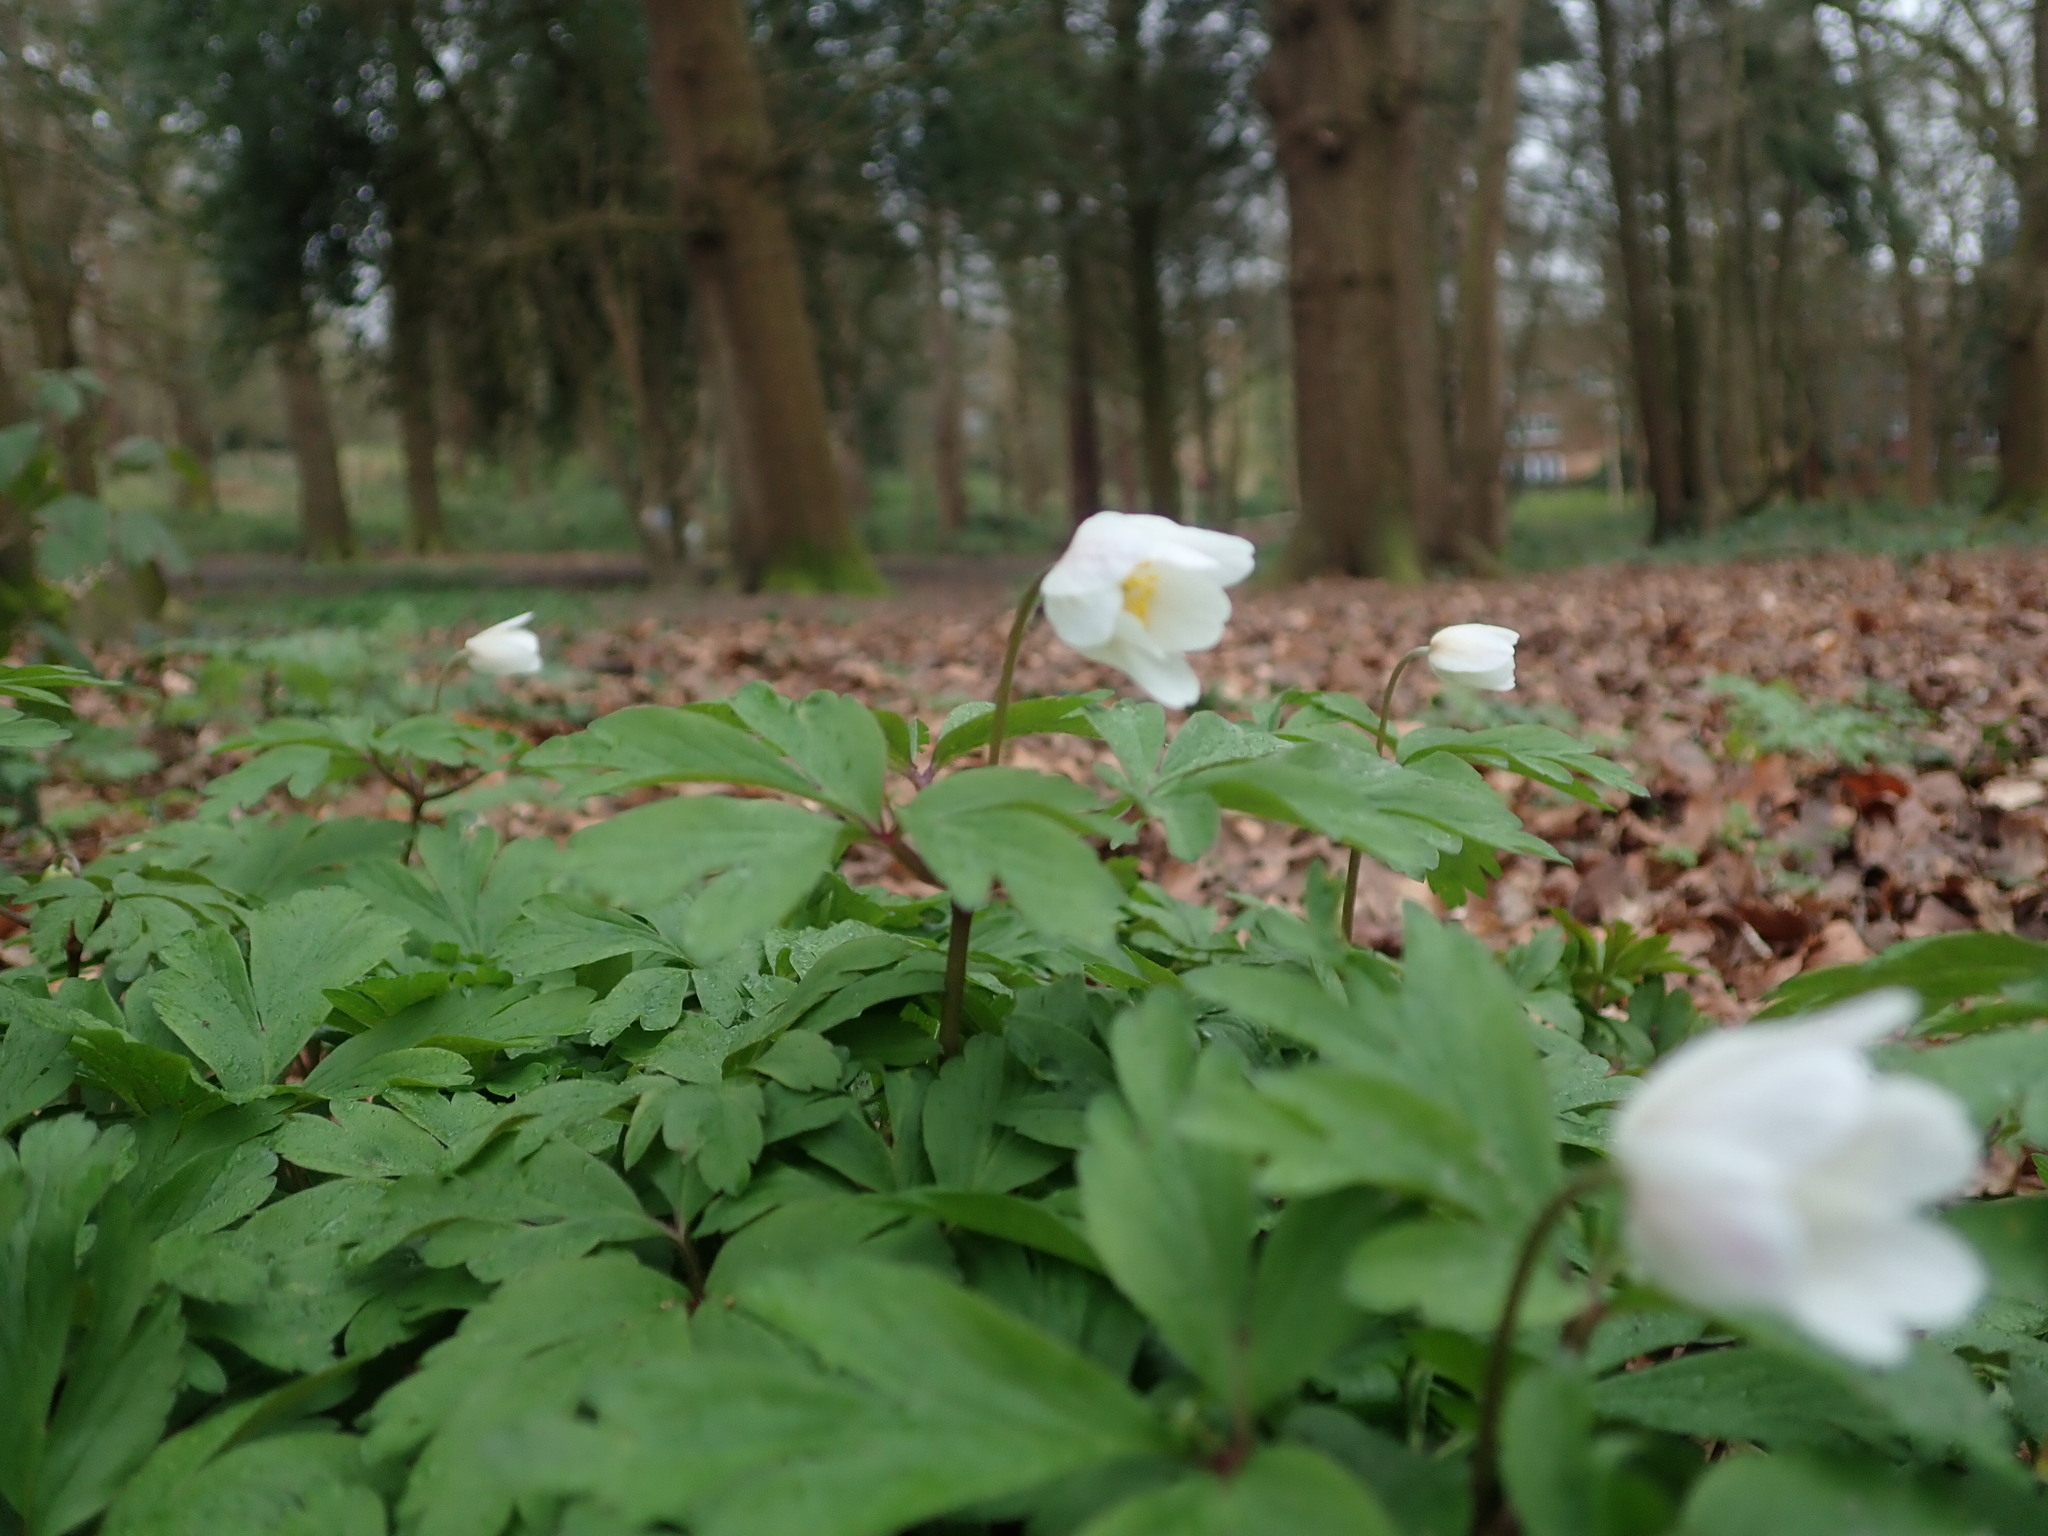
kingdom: Plantae
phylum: Tracheophyta
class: Magnoliopsida
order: Ranunculales
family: Ranunculaceae
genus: Anemone
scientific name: Anemone nemorosa
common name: Wood anemone
